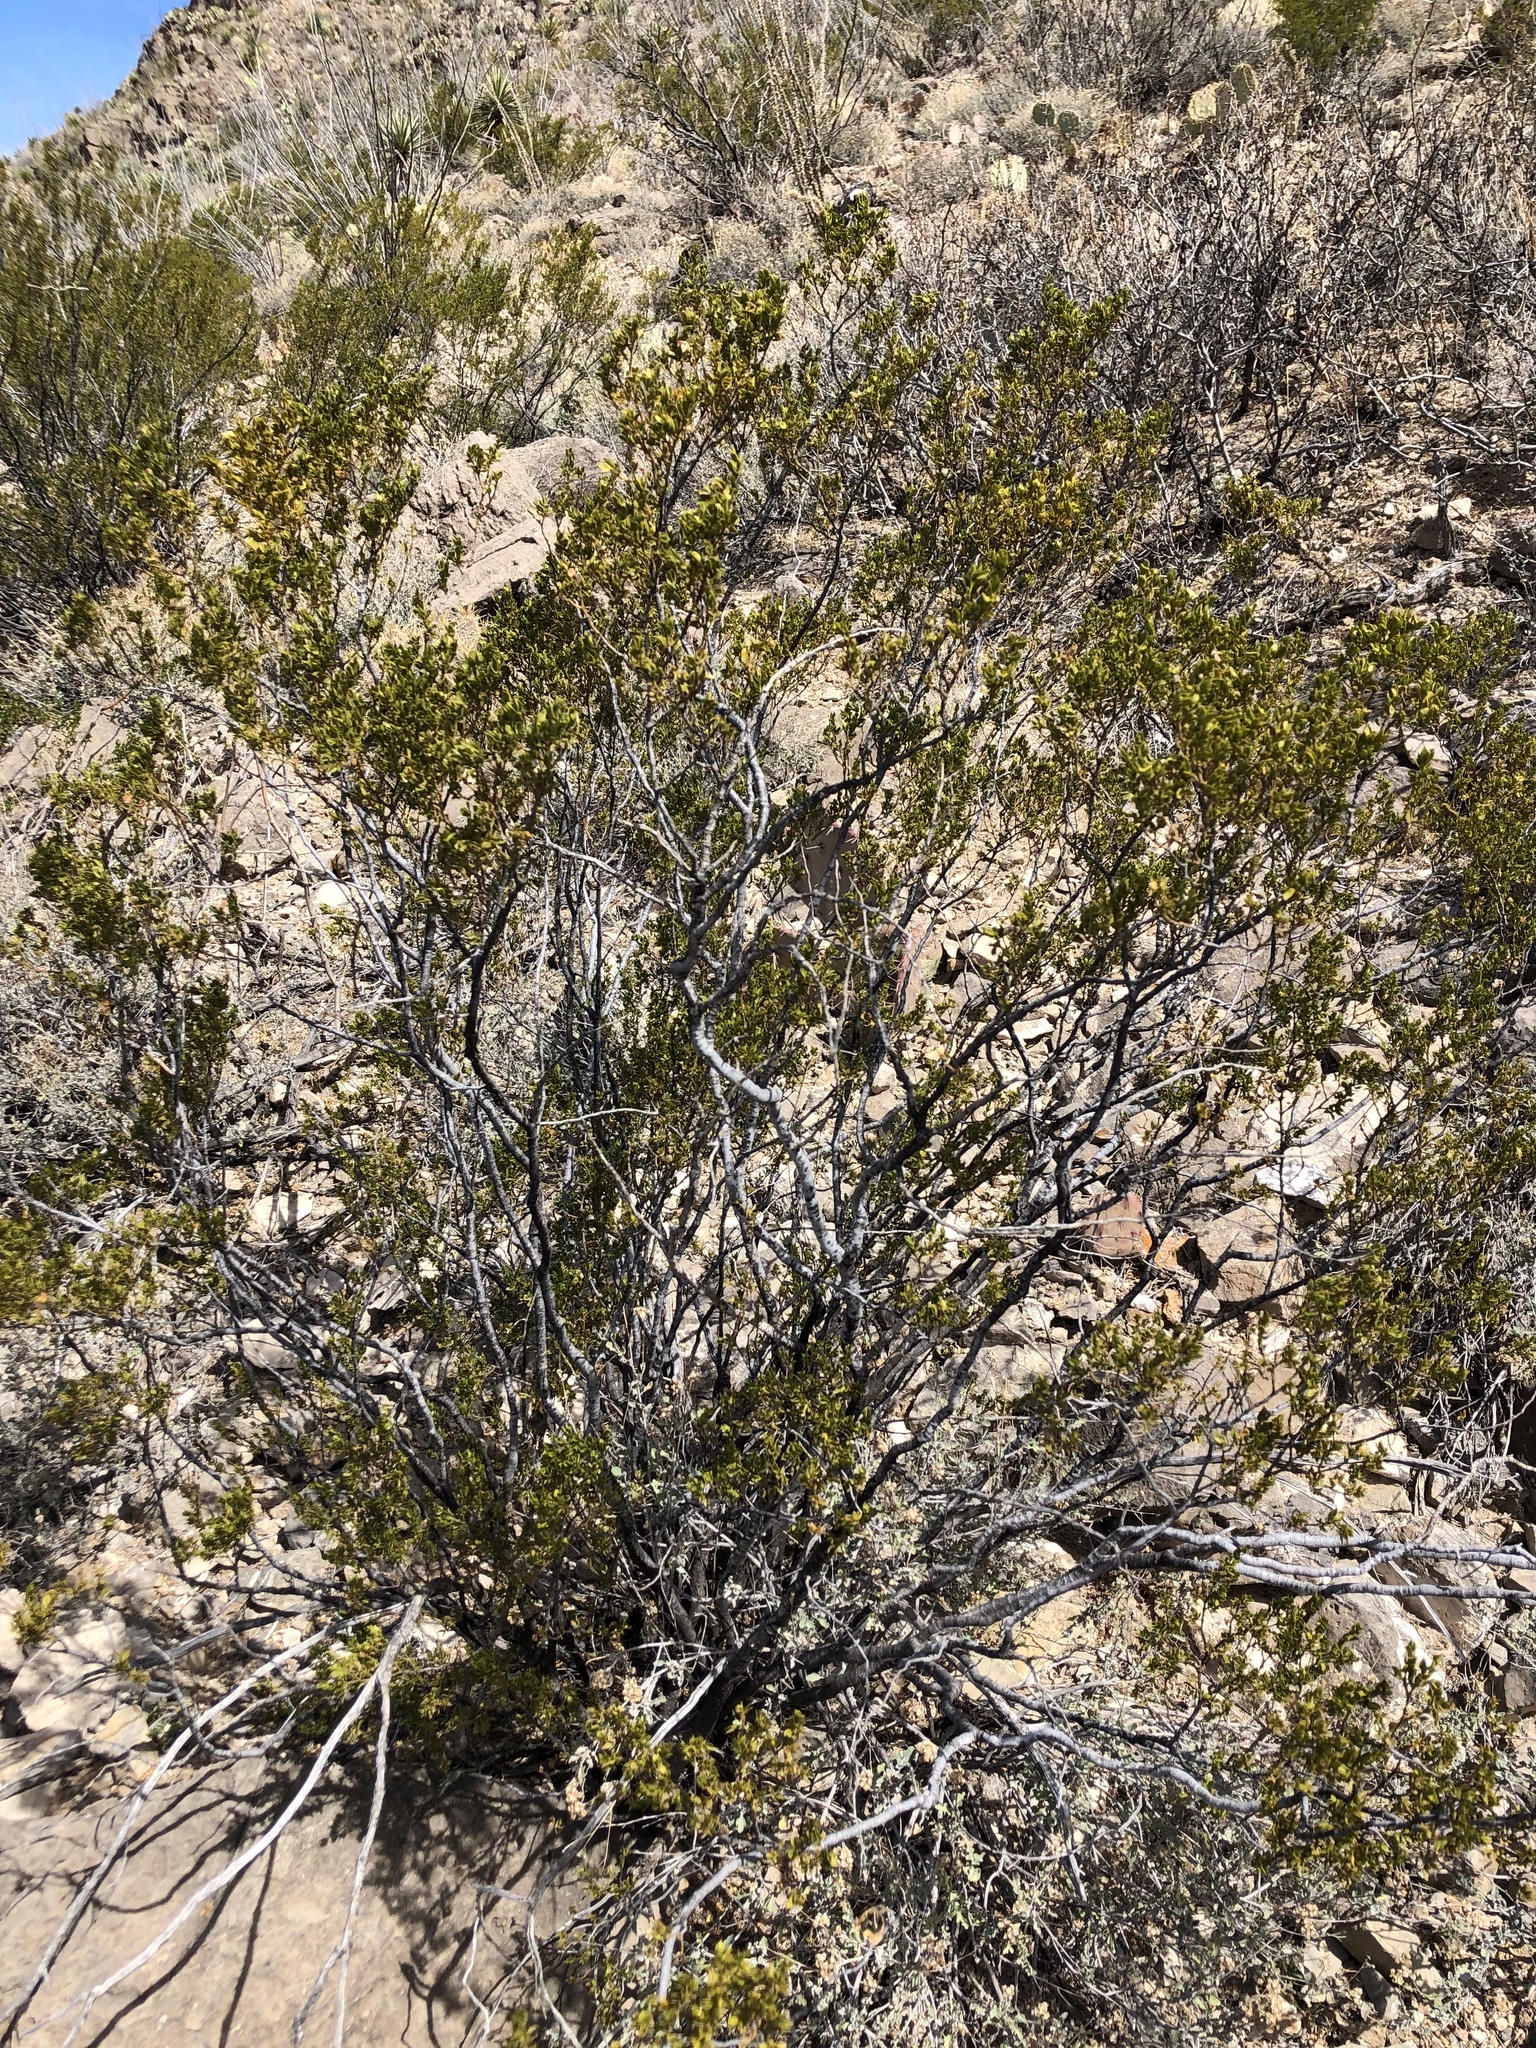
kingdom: Plantae
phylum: Tracheophyta
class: Magnoliopsida
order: Zygophyllales
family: Zygophyllaceae
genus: Larrea
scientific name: Larrea tridentata
